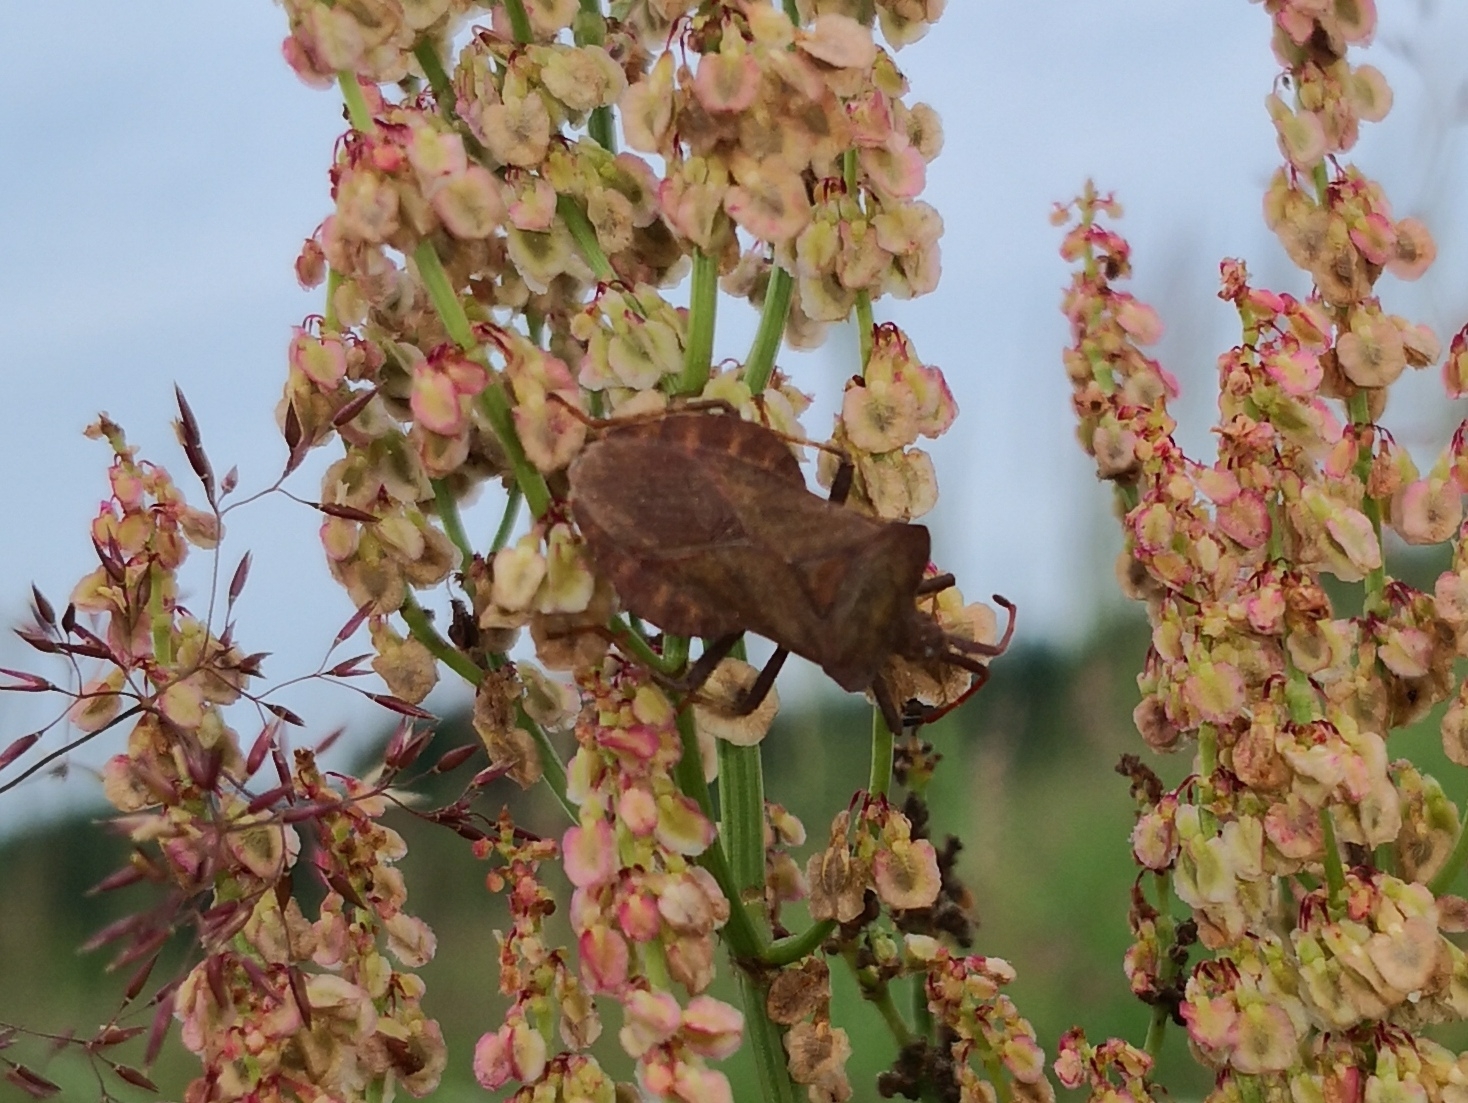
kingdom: Animalia
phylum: Arthropoda
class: Insecta
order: Hemiptera
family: Coreidae
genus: Coreus
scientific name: Coreus marginatus
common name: Dock bug
